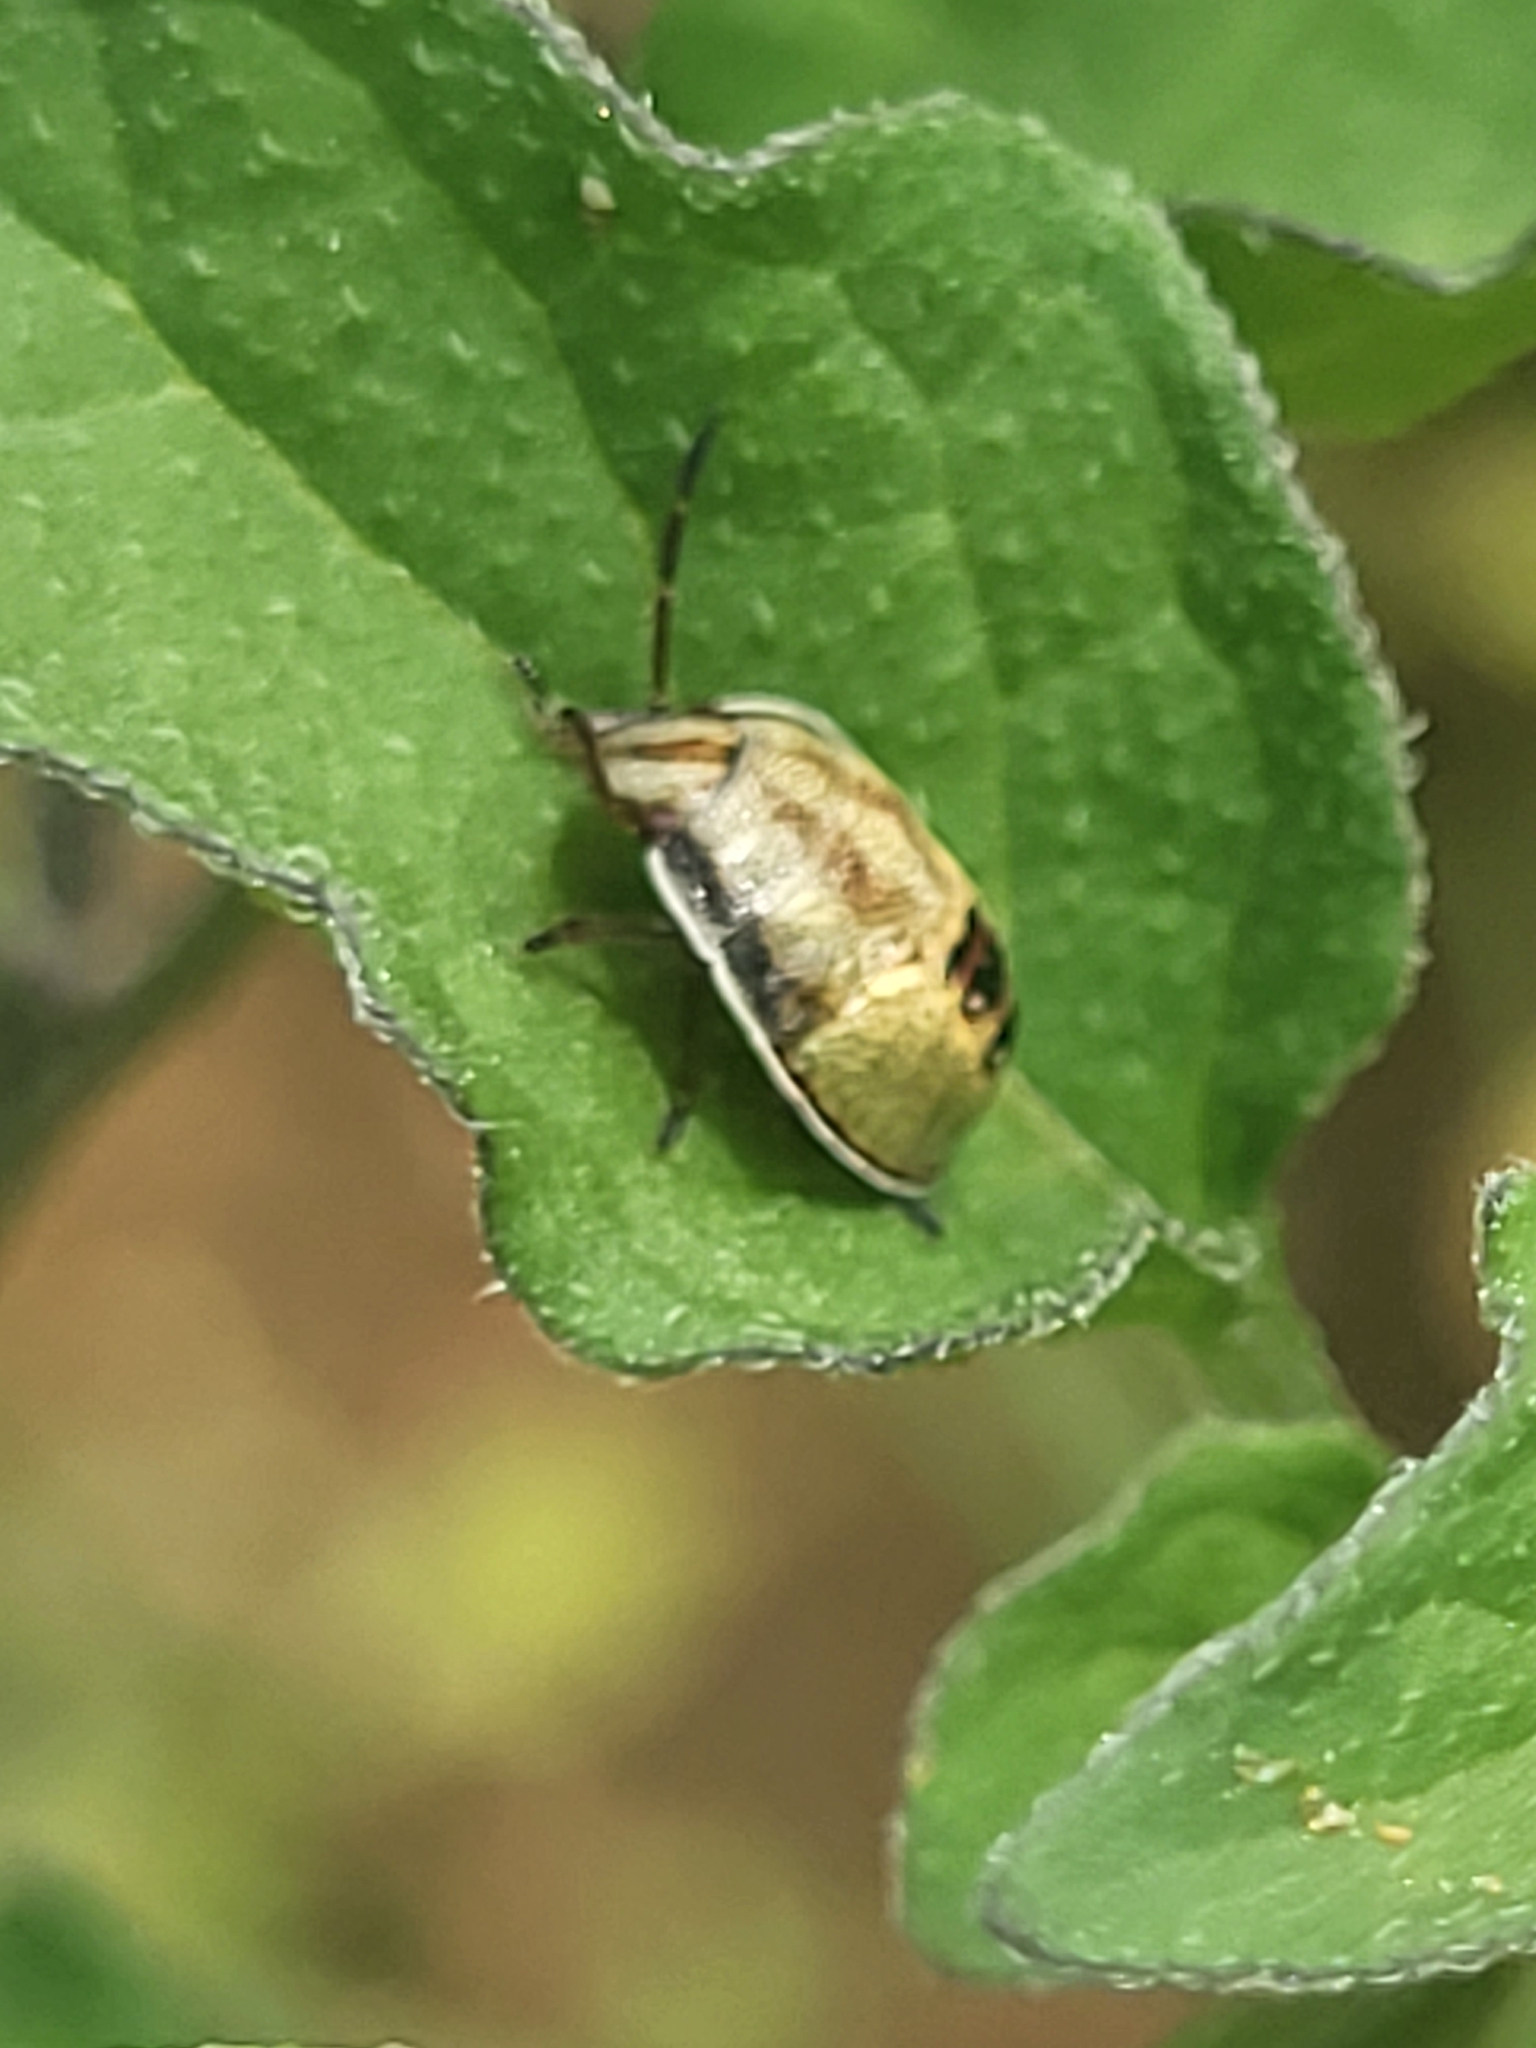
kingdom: Animalia
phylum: Arthropoda
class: Insecta
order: Hemiptera
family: Pentatomidae
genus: Piezodorus
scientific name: Piezodorus lituratus
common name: Stink bug
